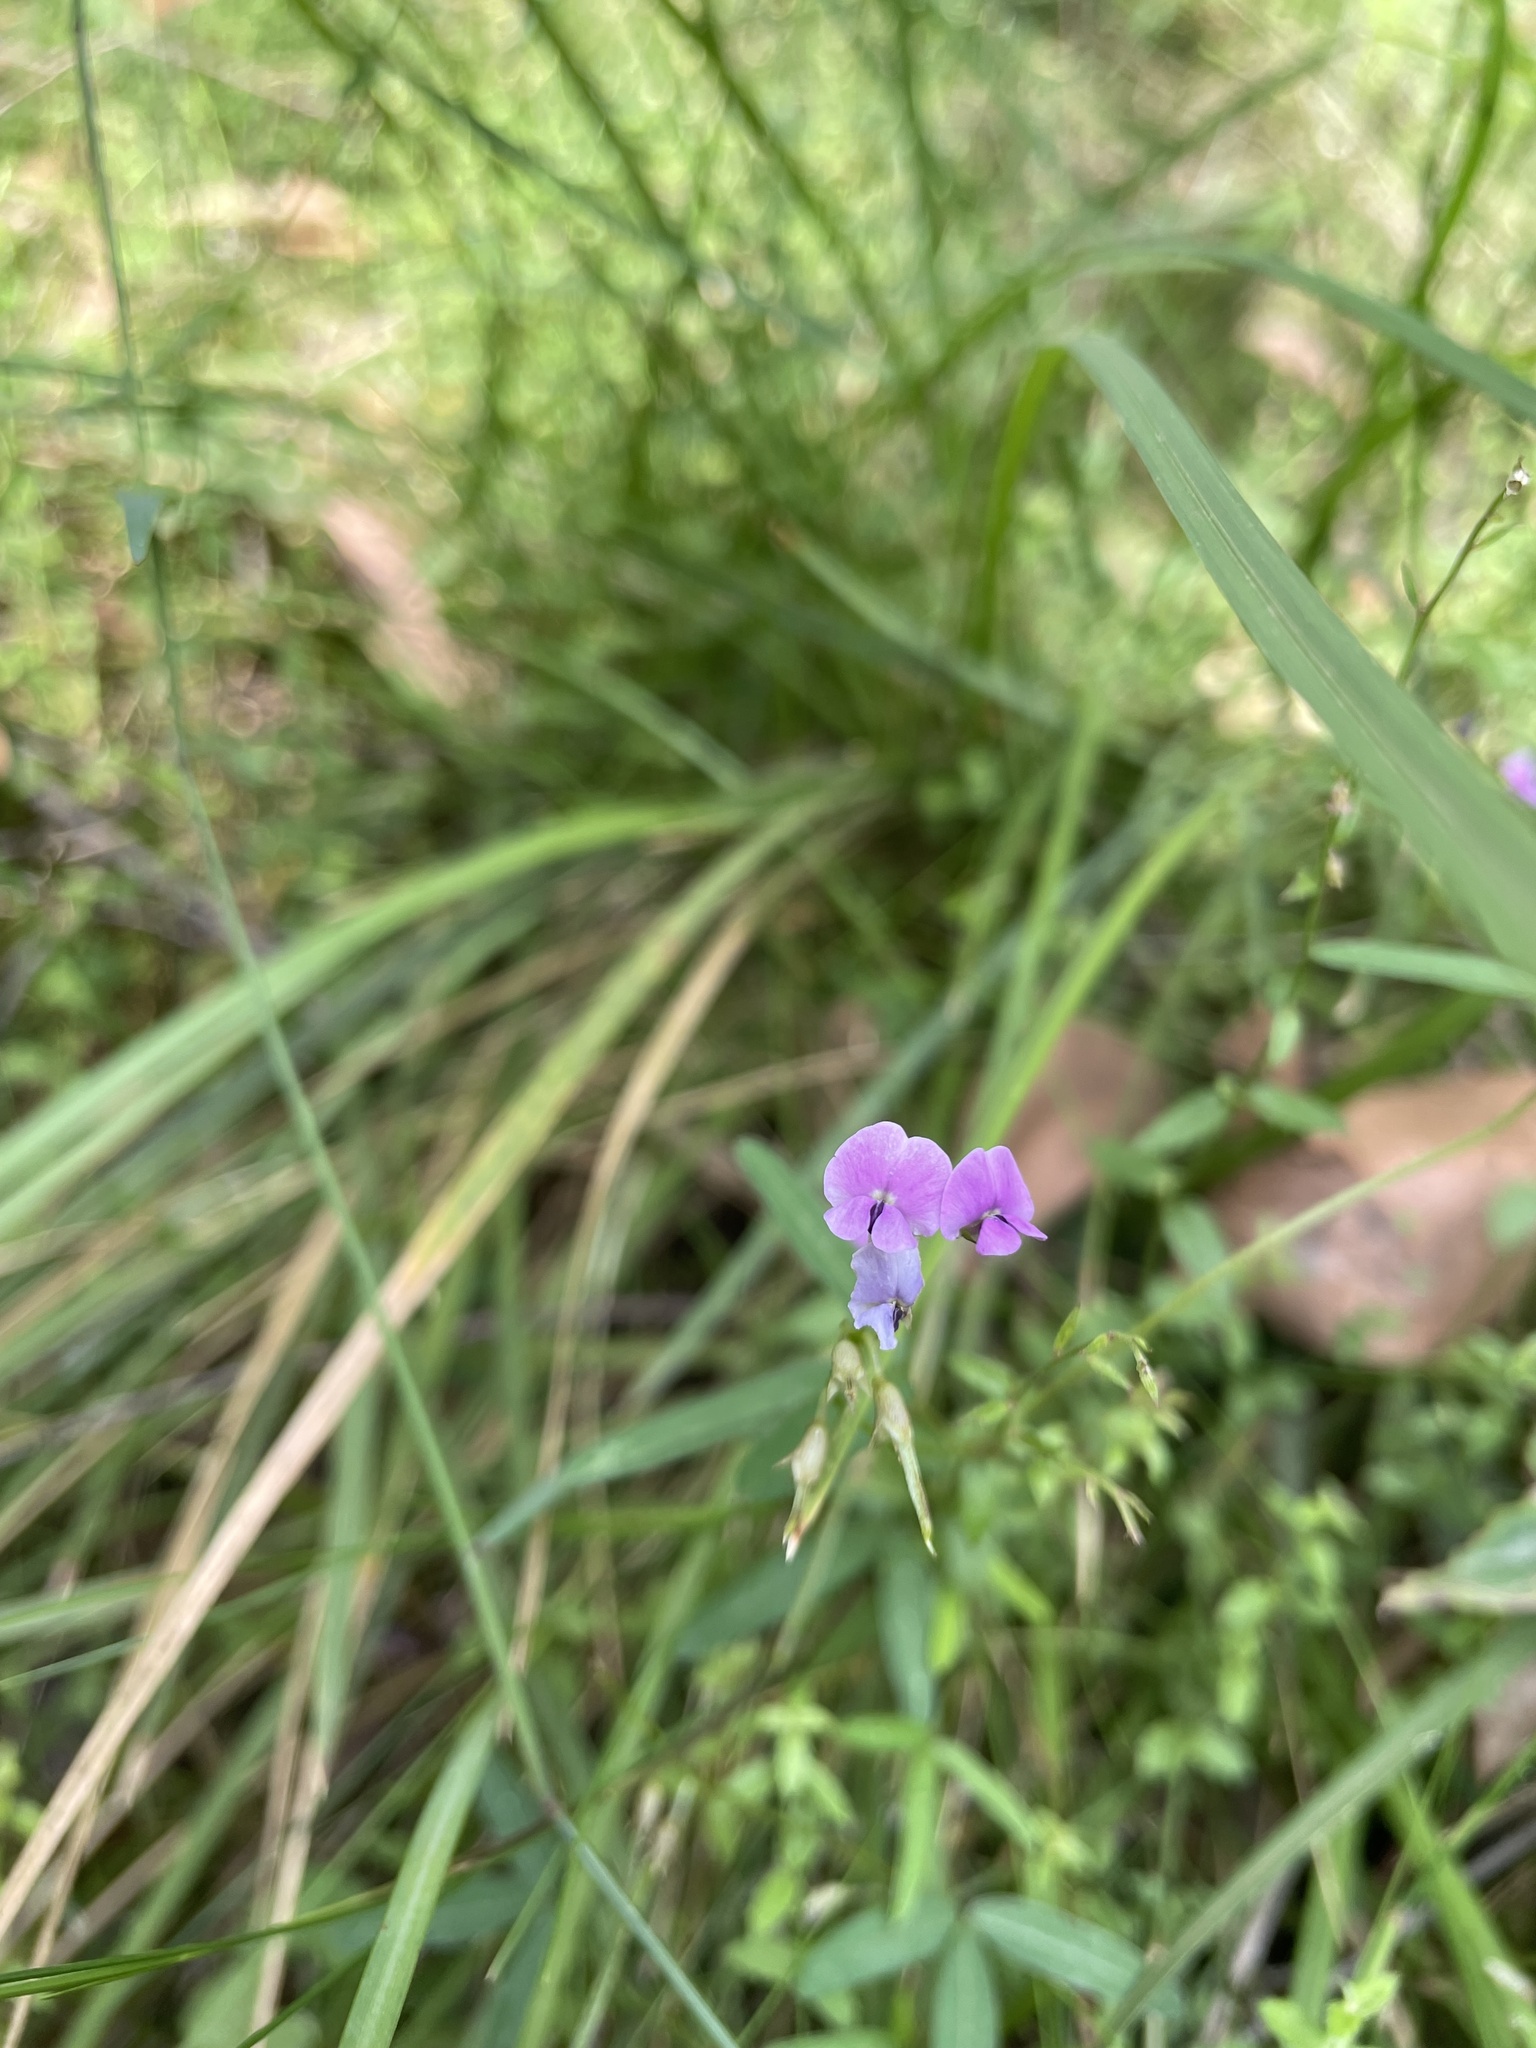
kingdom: Plantae
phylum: Tracheophyta
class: Magnoliopsida
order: Fabales
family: Fabaceae
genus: Glycine
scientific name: Glycine clandestina
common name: Twining glycine
